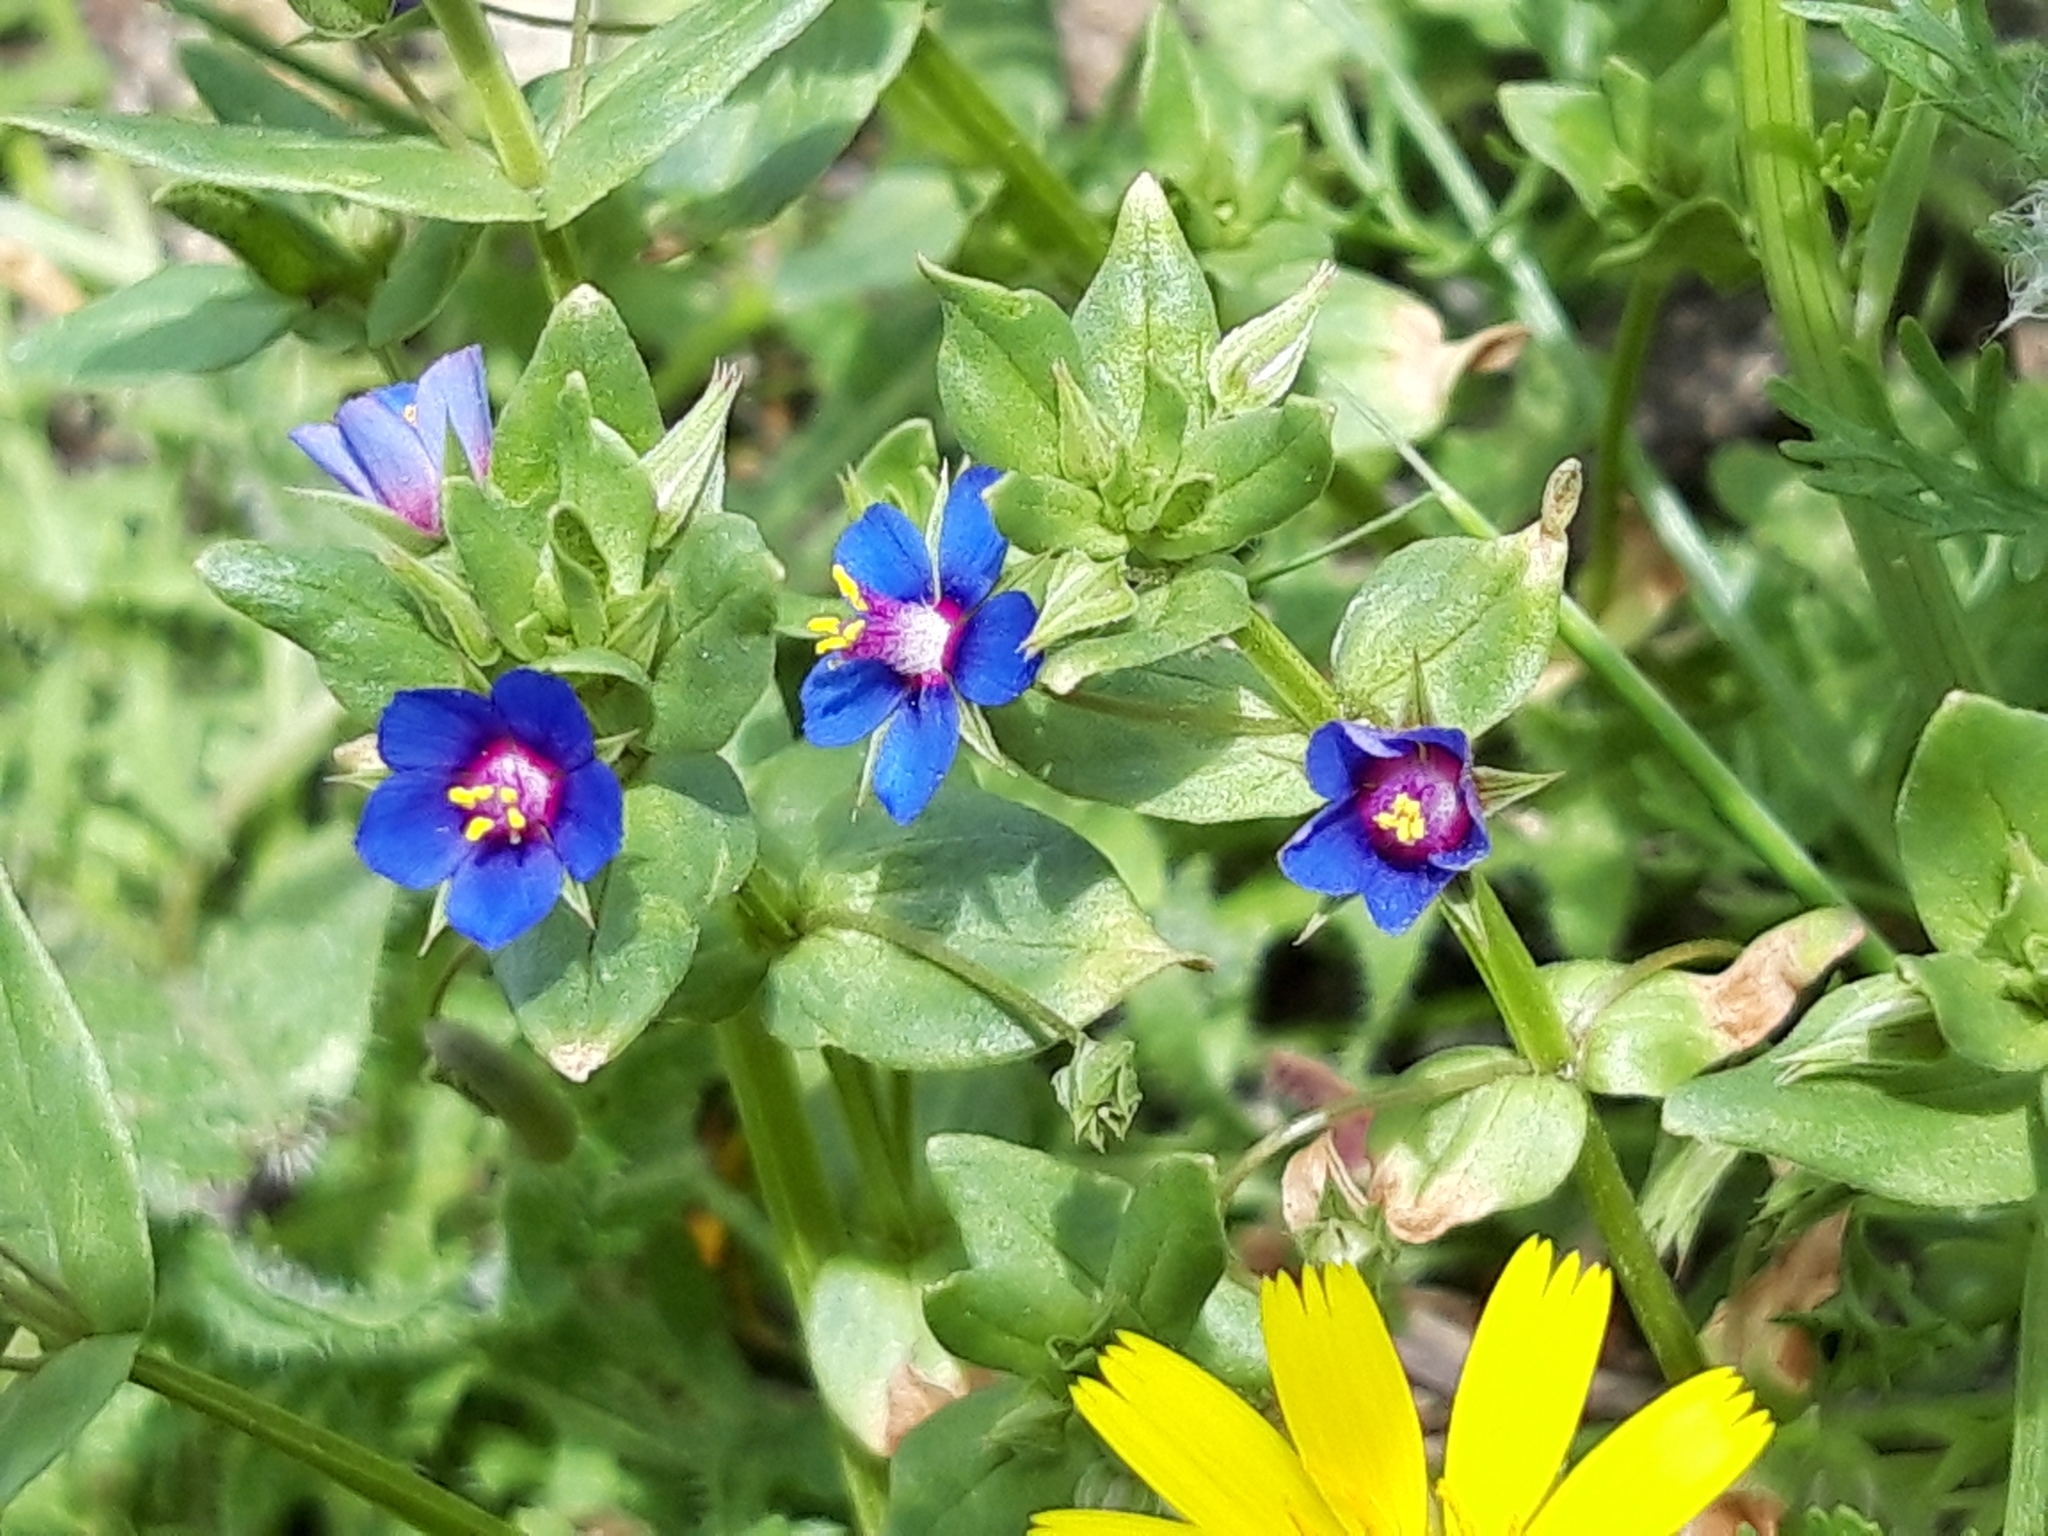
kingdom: Plantae
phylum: Tracheophyta
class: Magnoliopsida
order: Ericales
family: Primulaceae
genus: Lysimachia
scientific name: Lysimachia loeflingii
